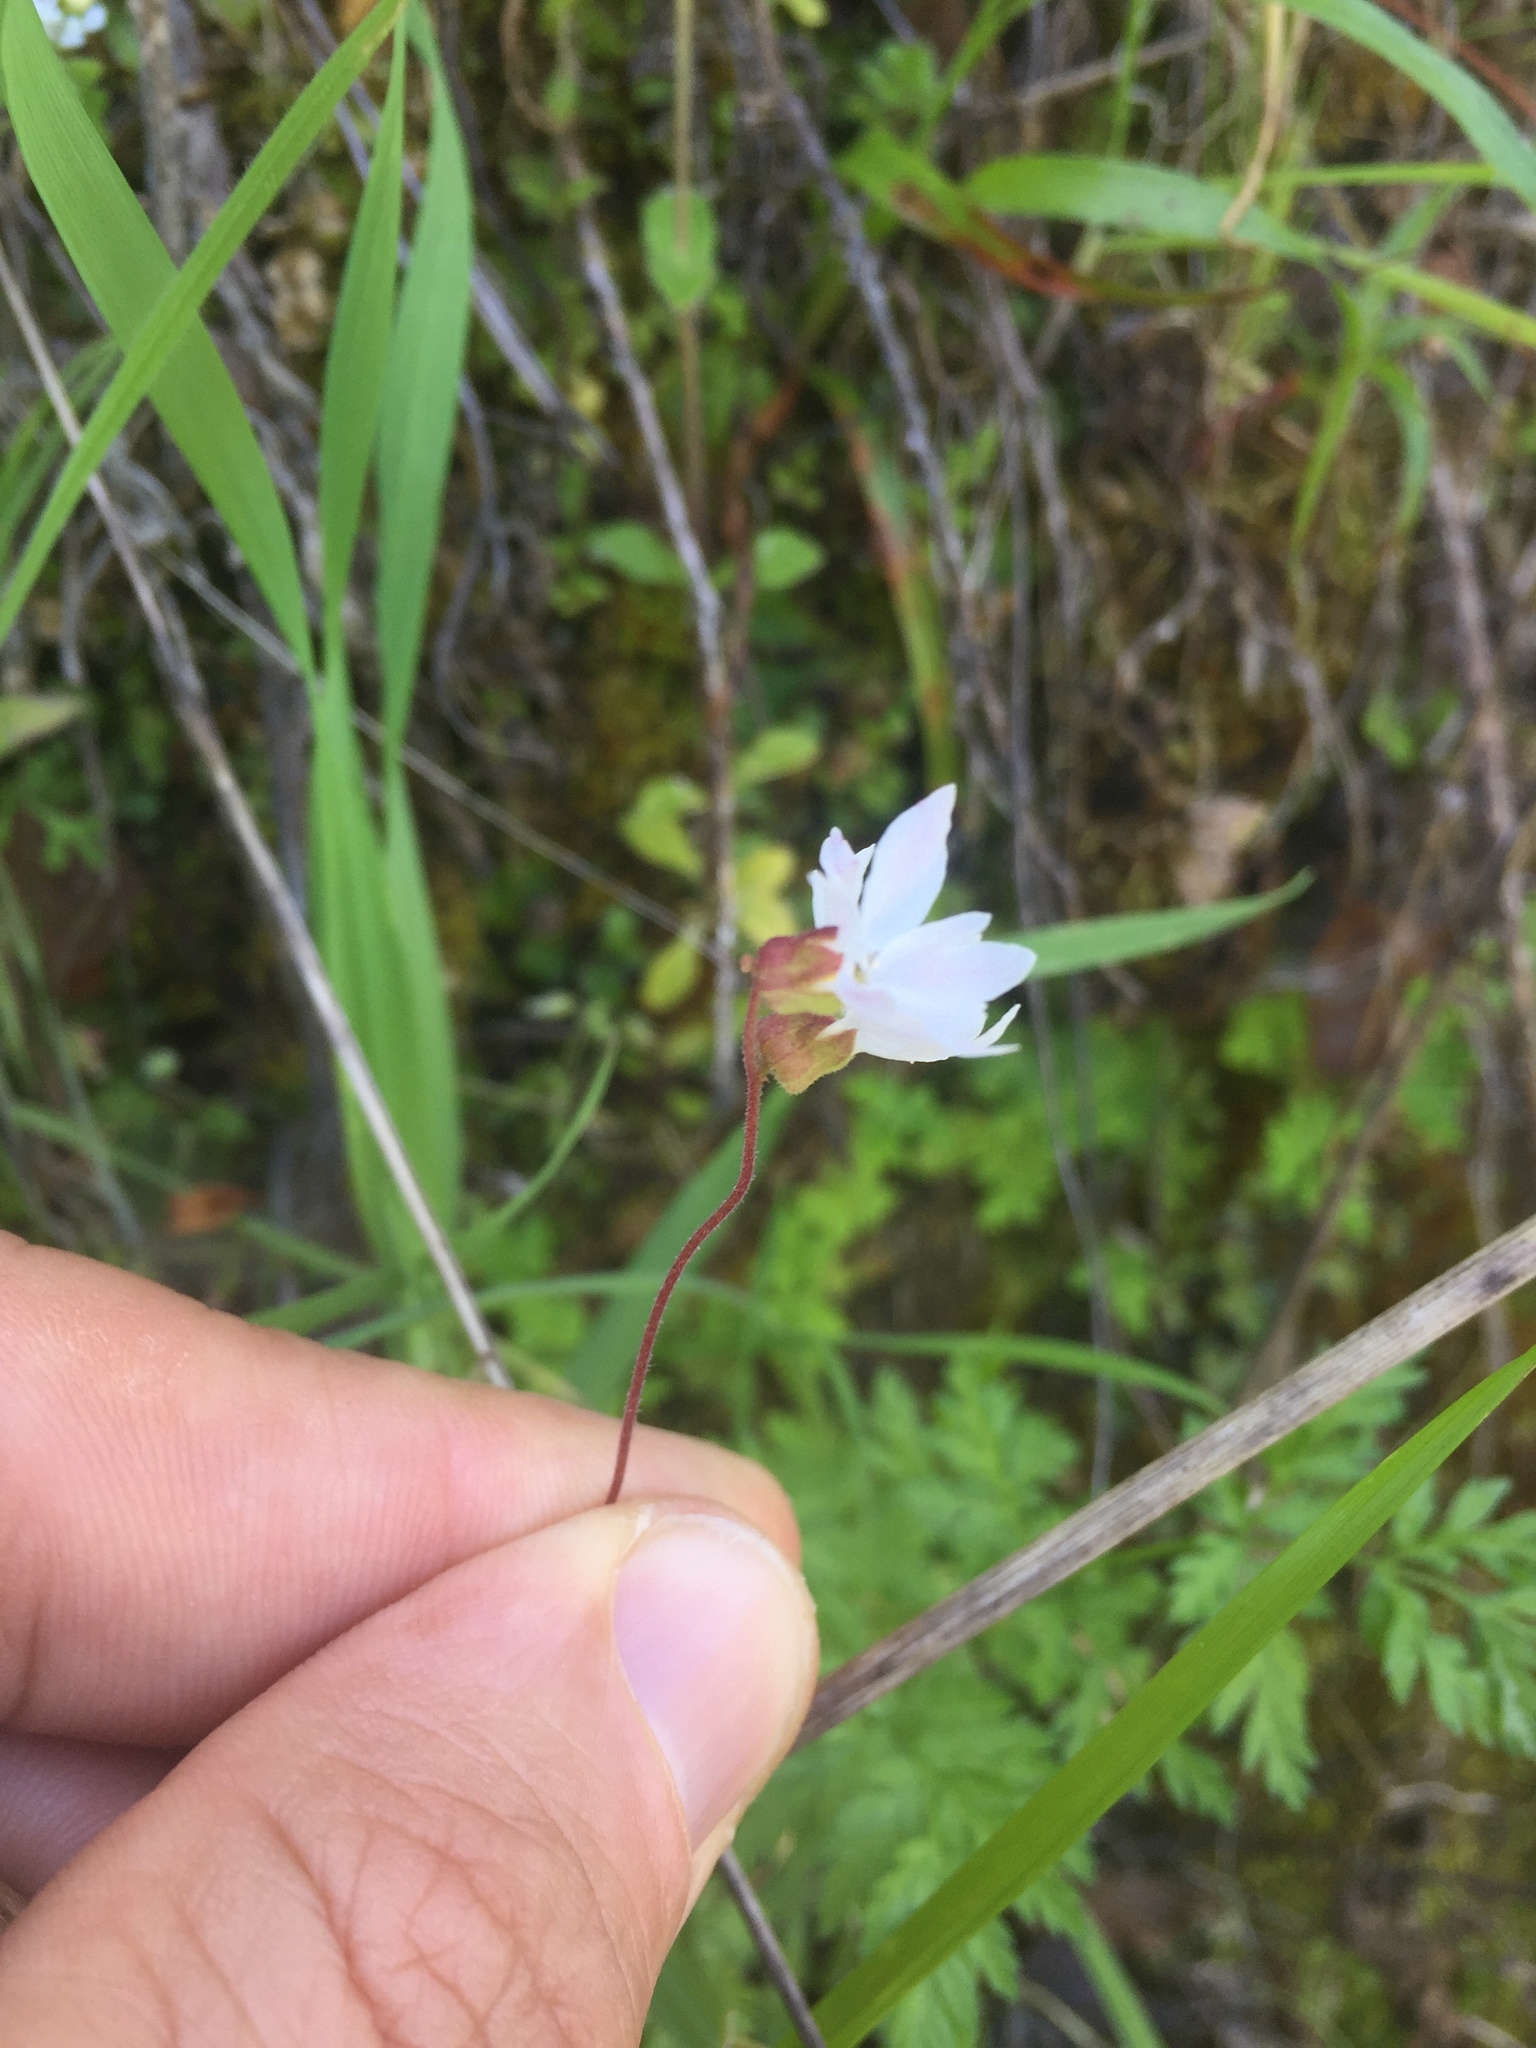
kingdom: Plantae
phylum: Tracheophyta
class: Magnoliopsida
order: Saxifragales
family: Saxifragaceae
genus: Lithophragma
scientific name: Lithophragma heterophyllum
